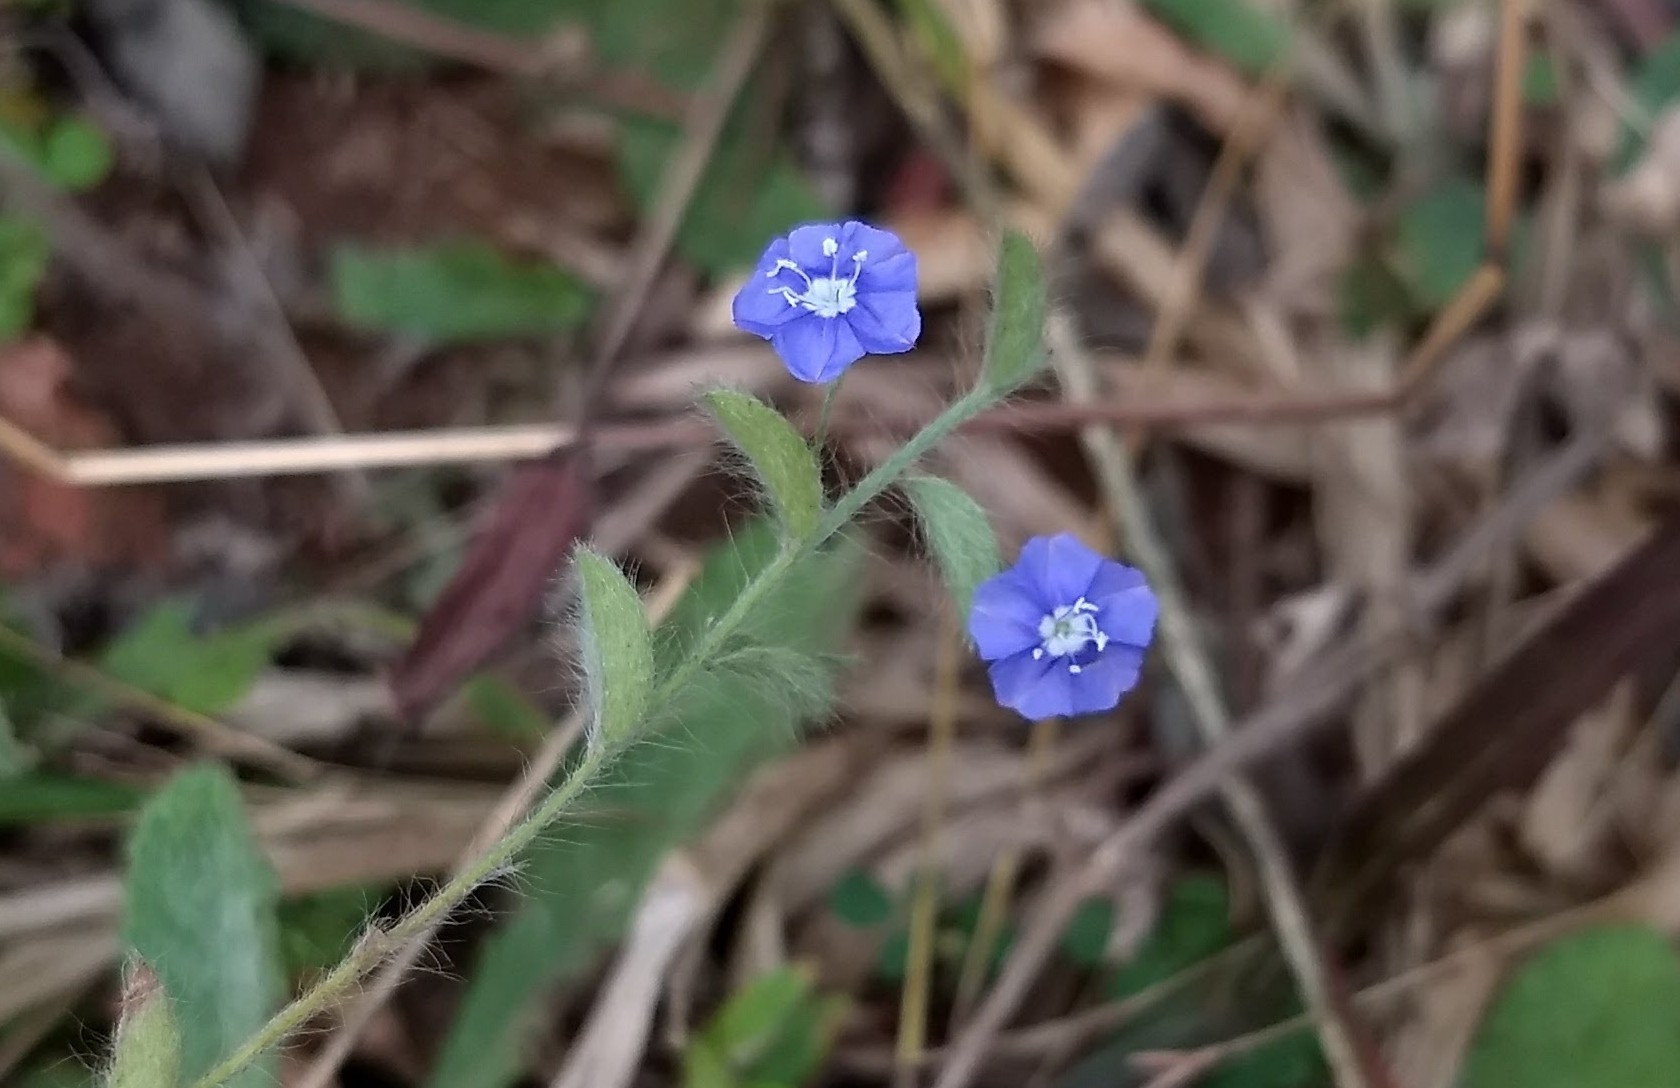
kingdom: Plantae
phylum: Tracheophyta
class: Magnoliopsida
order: Solanales
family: Convolvulaceae
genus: Evolvulus
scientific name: Evolvulus alsinoides
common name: Slender dwarf morning-glory
